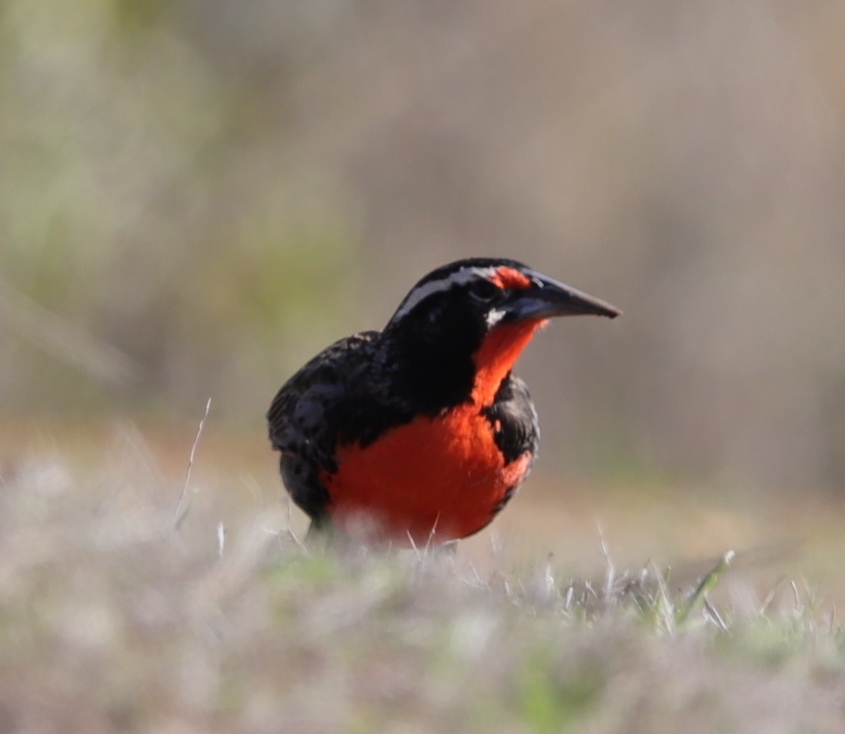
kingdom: Animalia
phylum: Chordata
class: Aves
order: Passeriformes
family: Icteridae
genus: Sturnella
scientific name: Sturnella loyca
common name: Long-tailed meadowlark
